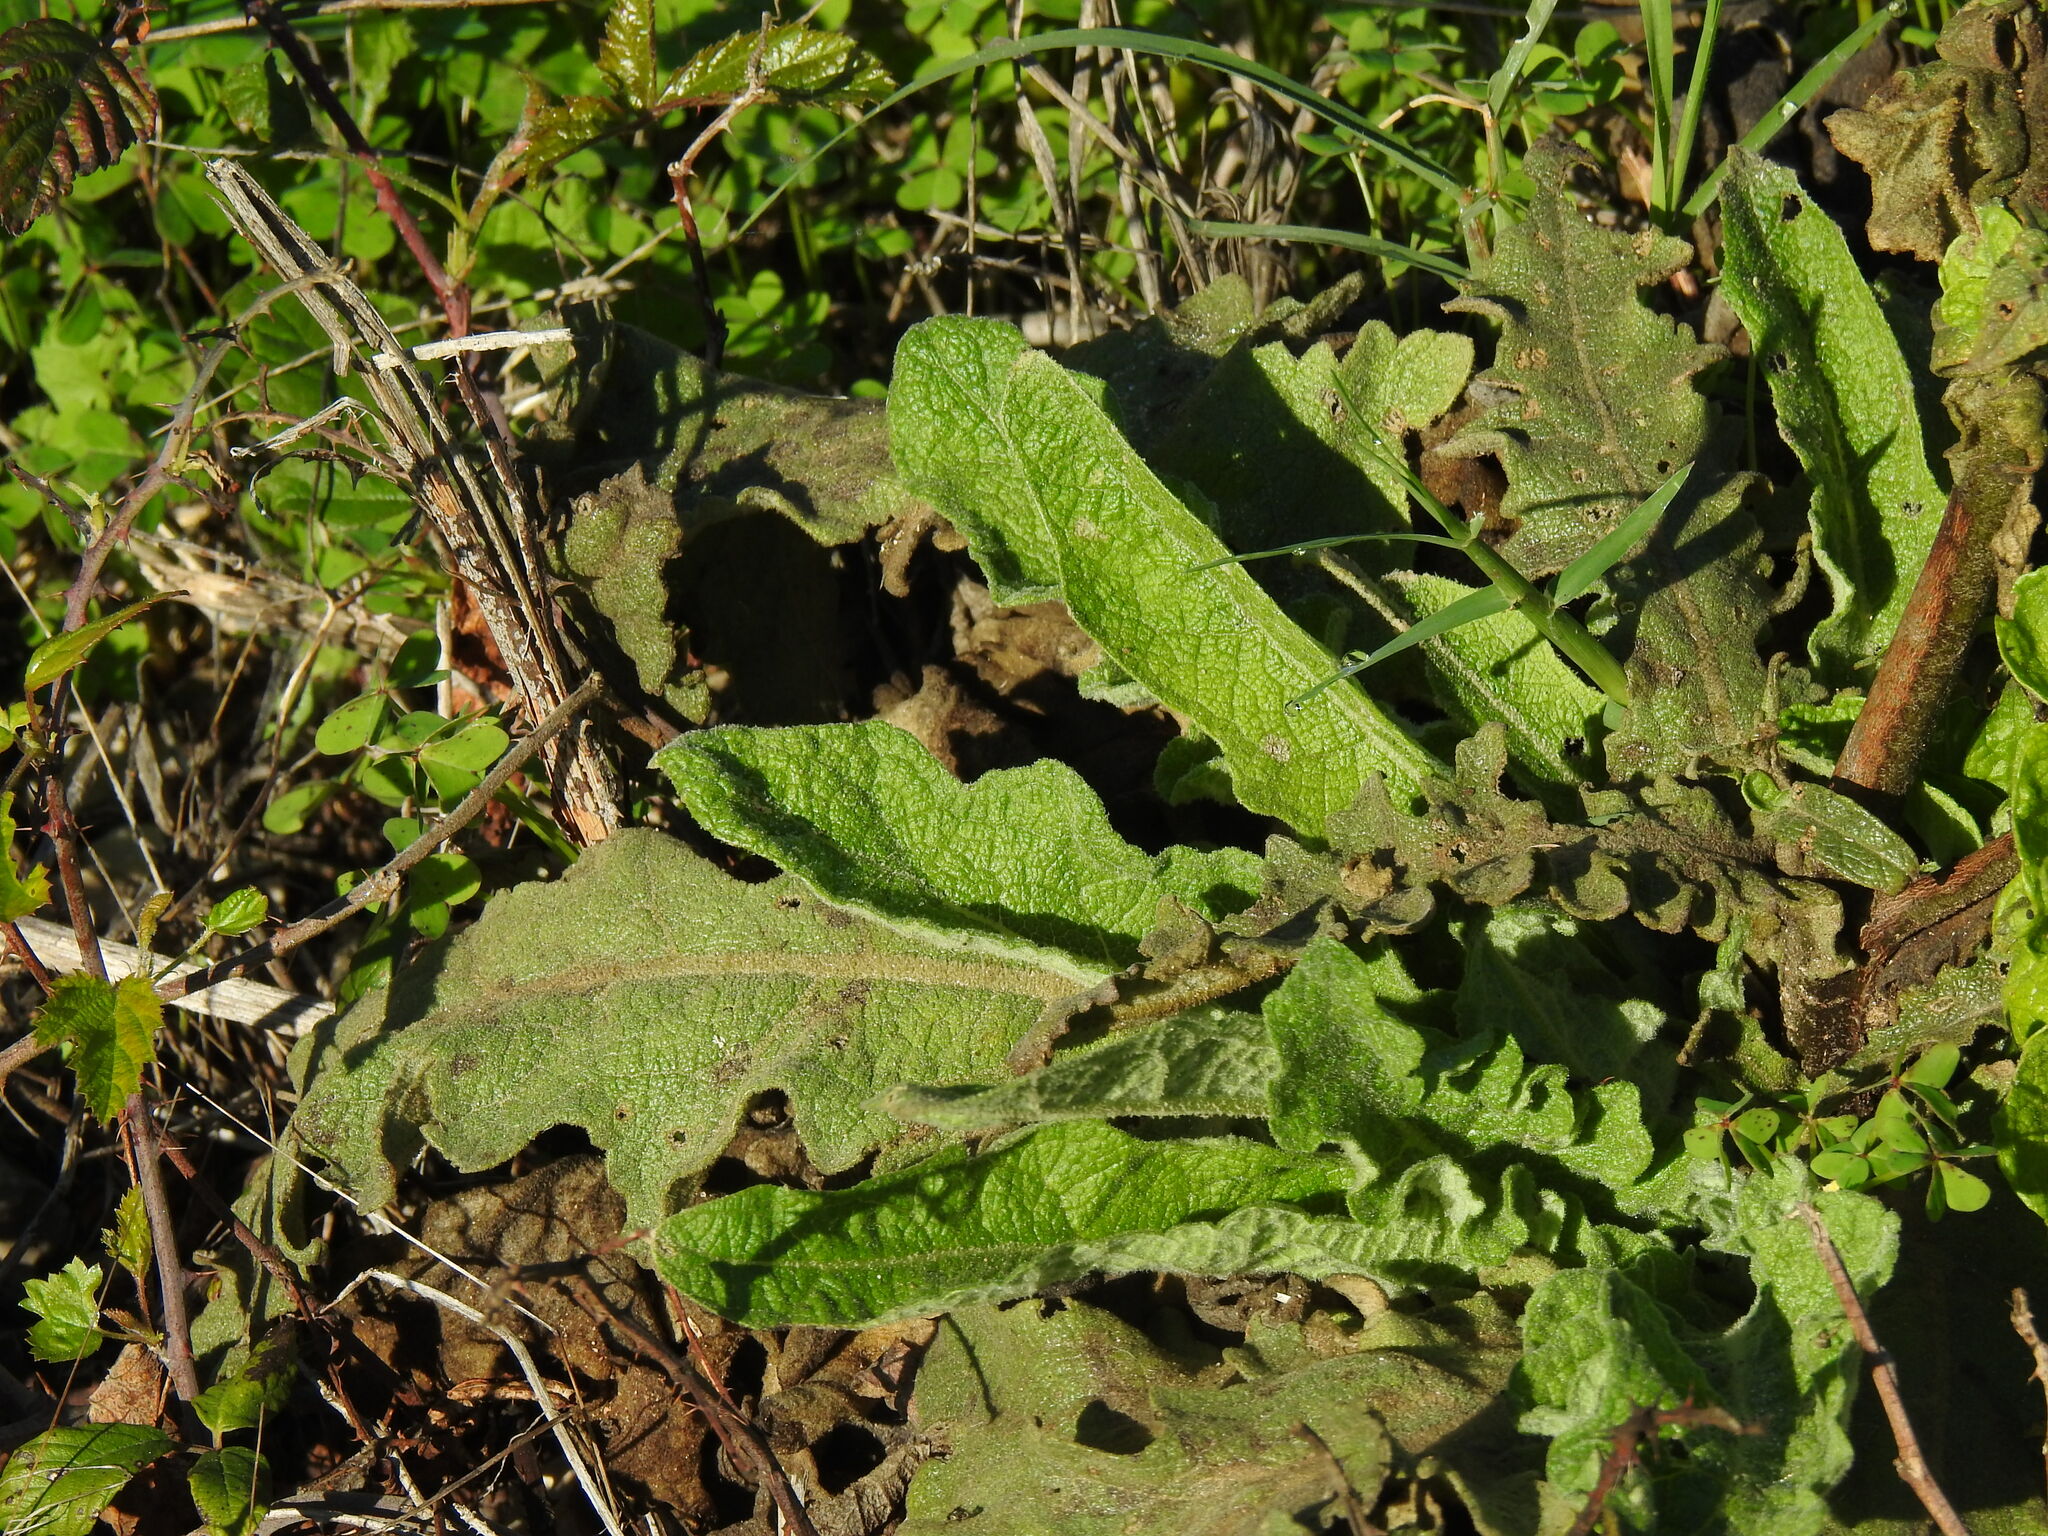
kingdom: Plantae
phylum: Tracheophyta
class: Magnoliopsida
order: Lamiales
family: Scrophulariaceae
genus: Verbascum
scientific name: Verbascum sinuatum
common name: Wavyleaf mullein
